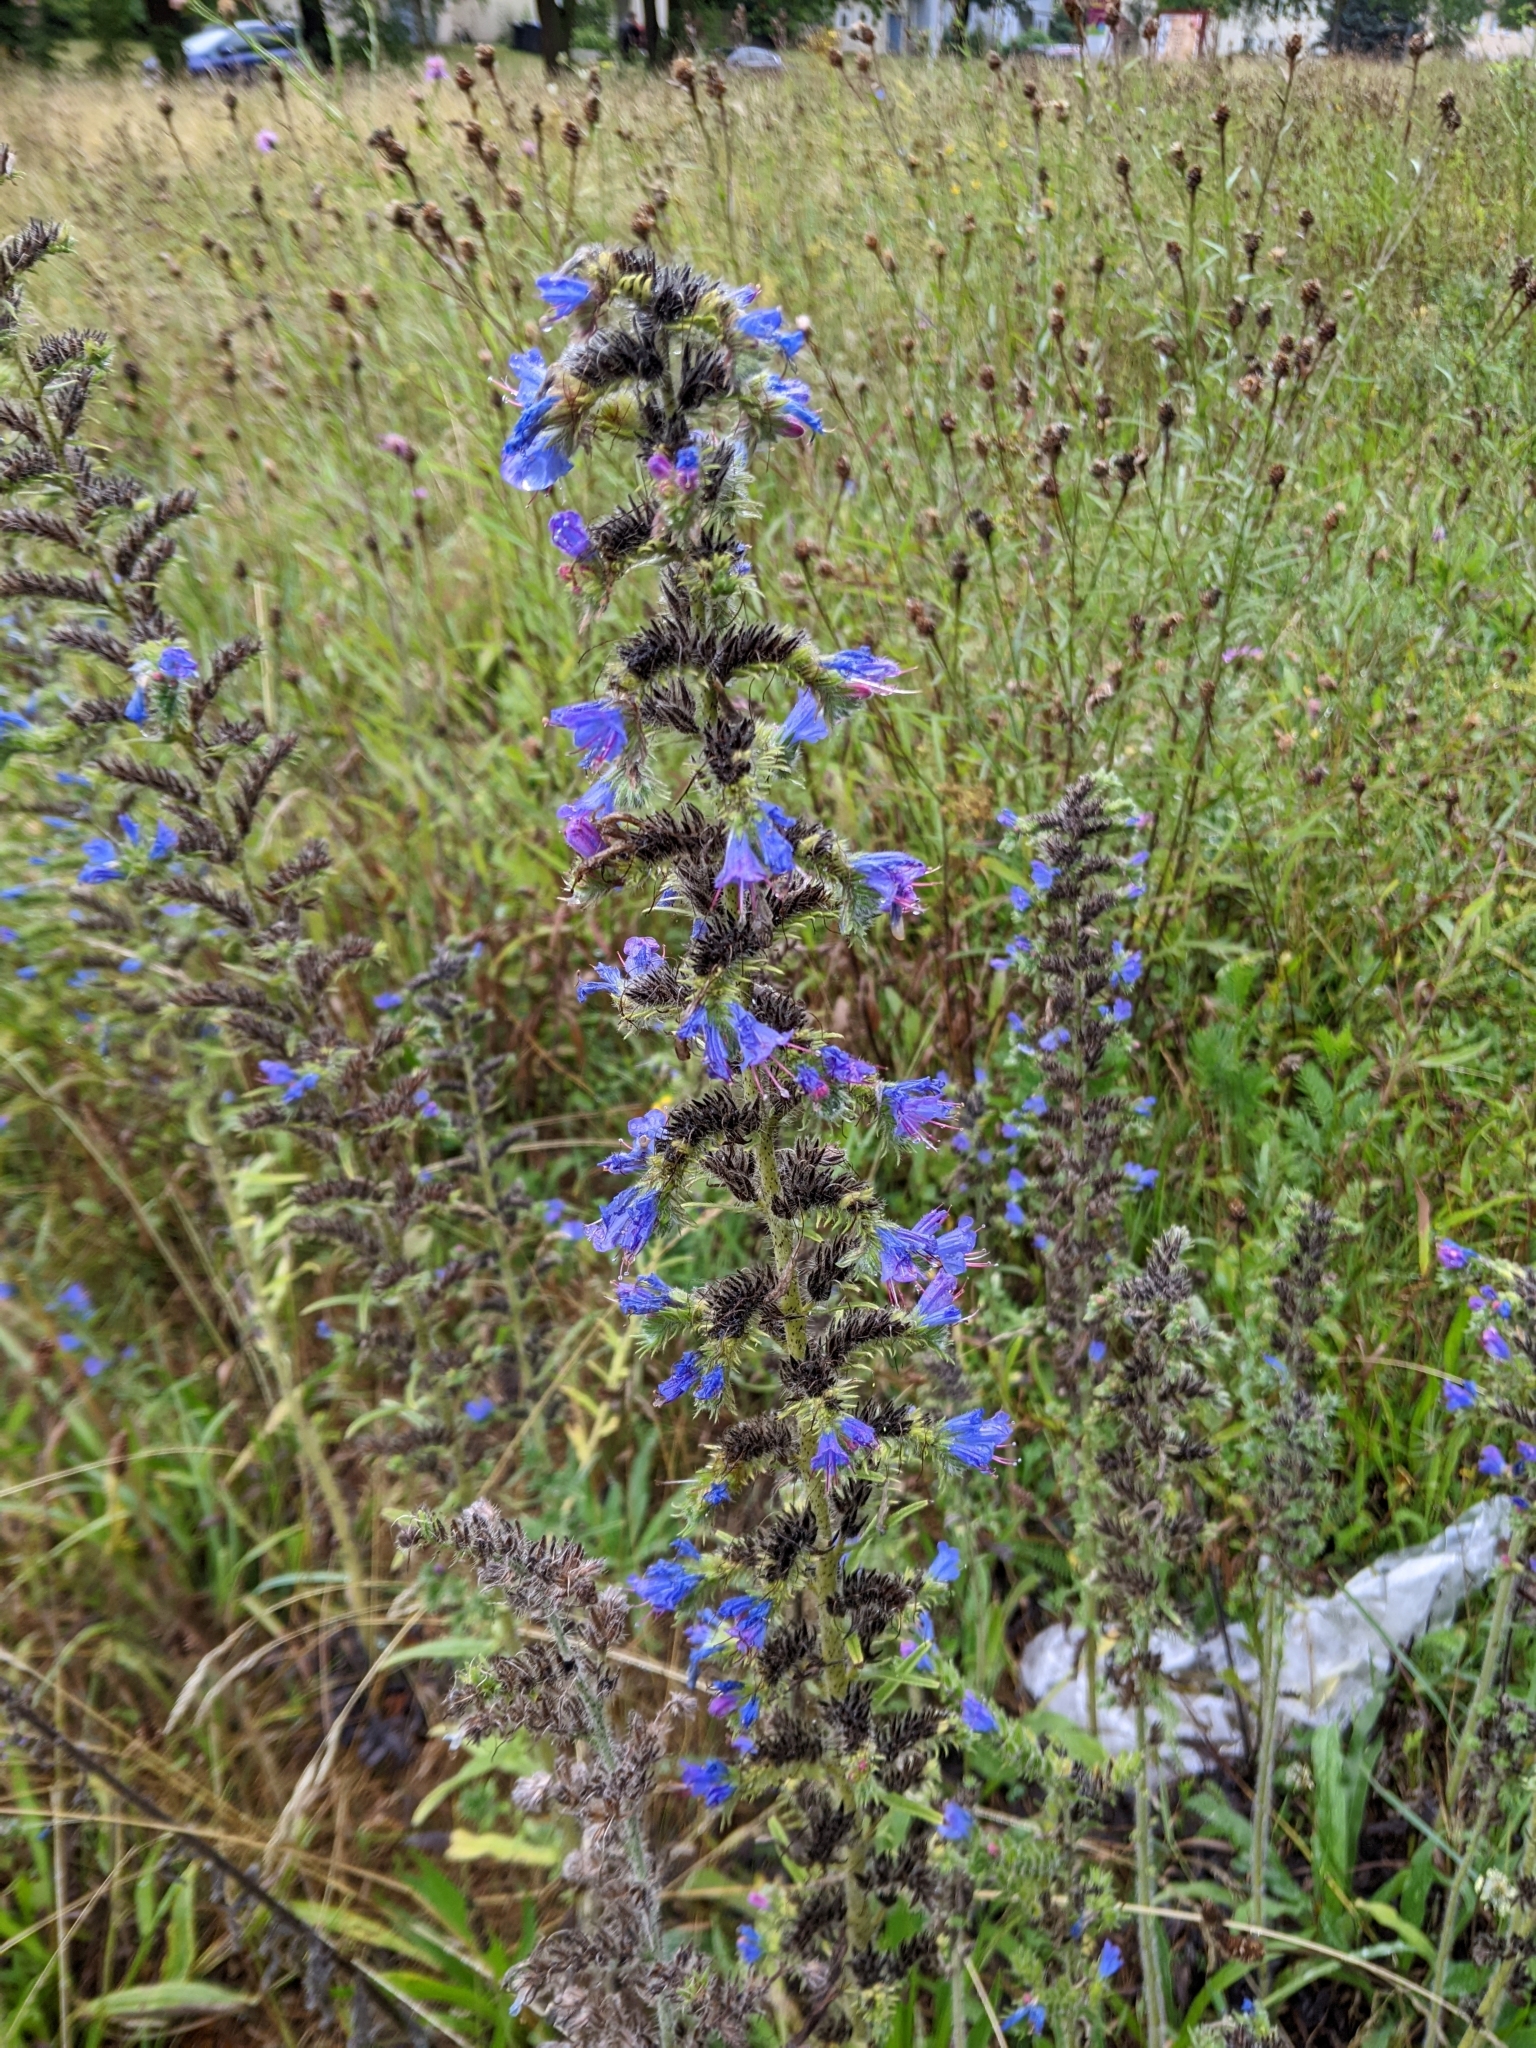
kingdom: Plantae
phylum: Tracheophyta
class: Magnoliopsida
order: Boraginales
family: Boraginaceae
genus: Echium
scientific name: Echium vulgare
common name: Common viper's bugloss
